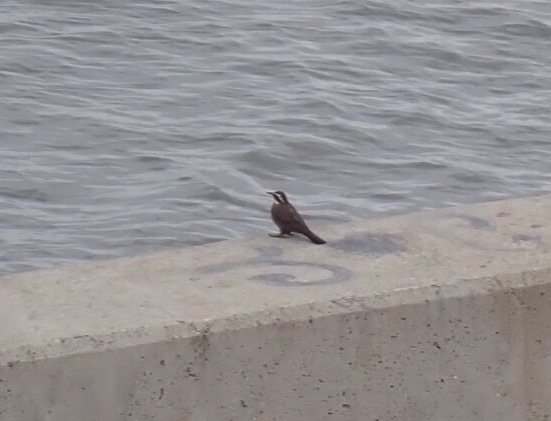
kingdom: Animalia
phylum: Chordata
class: Aves
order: Passeriformes
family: Furnariidae
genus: Cinclodes
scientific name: Cinclodes patagonicus
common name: Dark-bellied cinclodes
